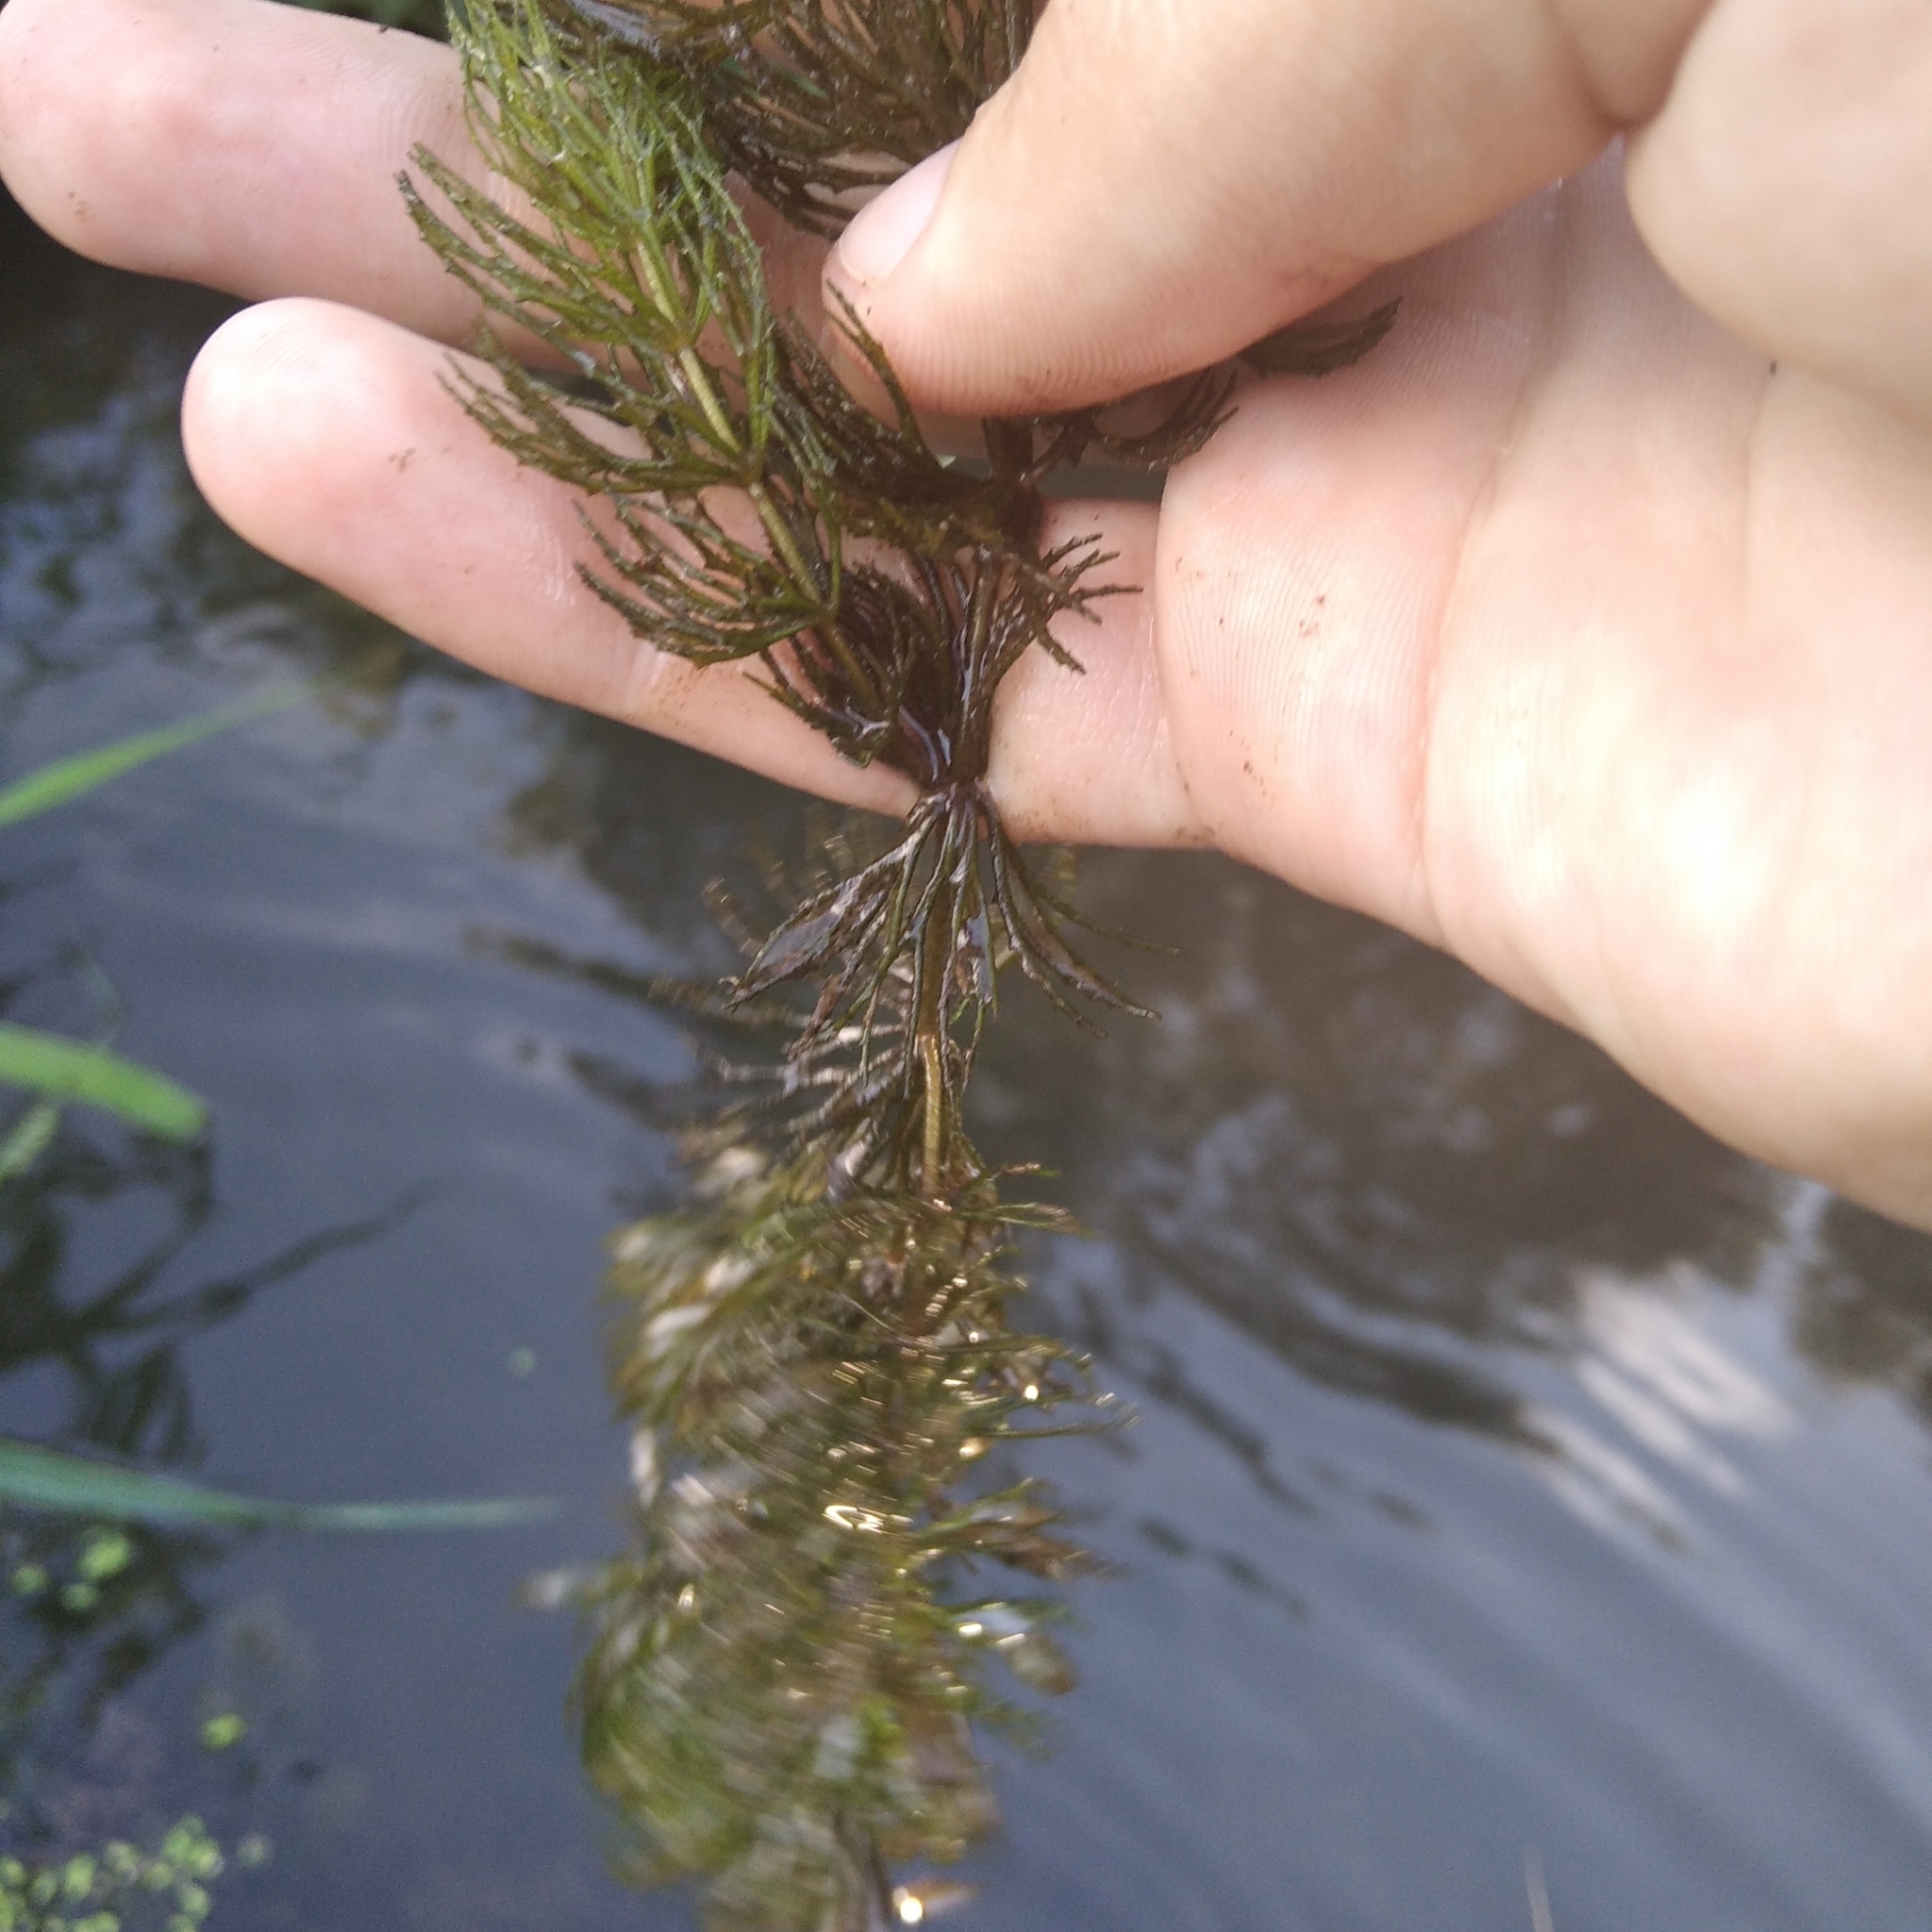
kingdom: Plantae
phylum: Tracheophyta
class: Magnoliopsida
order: Ceratophyllales
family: Ceratophyllaceae
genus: Ceratophyllum
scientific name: Ceratophyllum demersum
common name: Rigid hornwort
